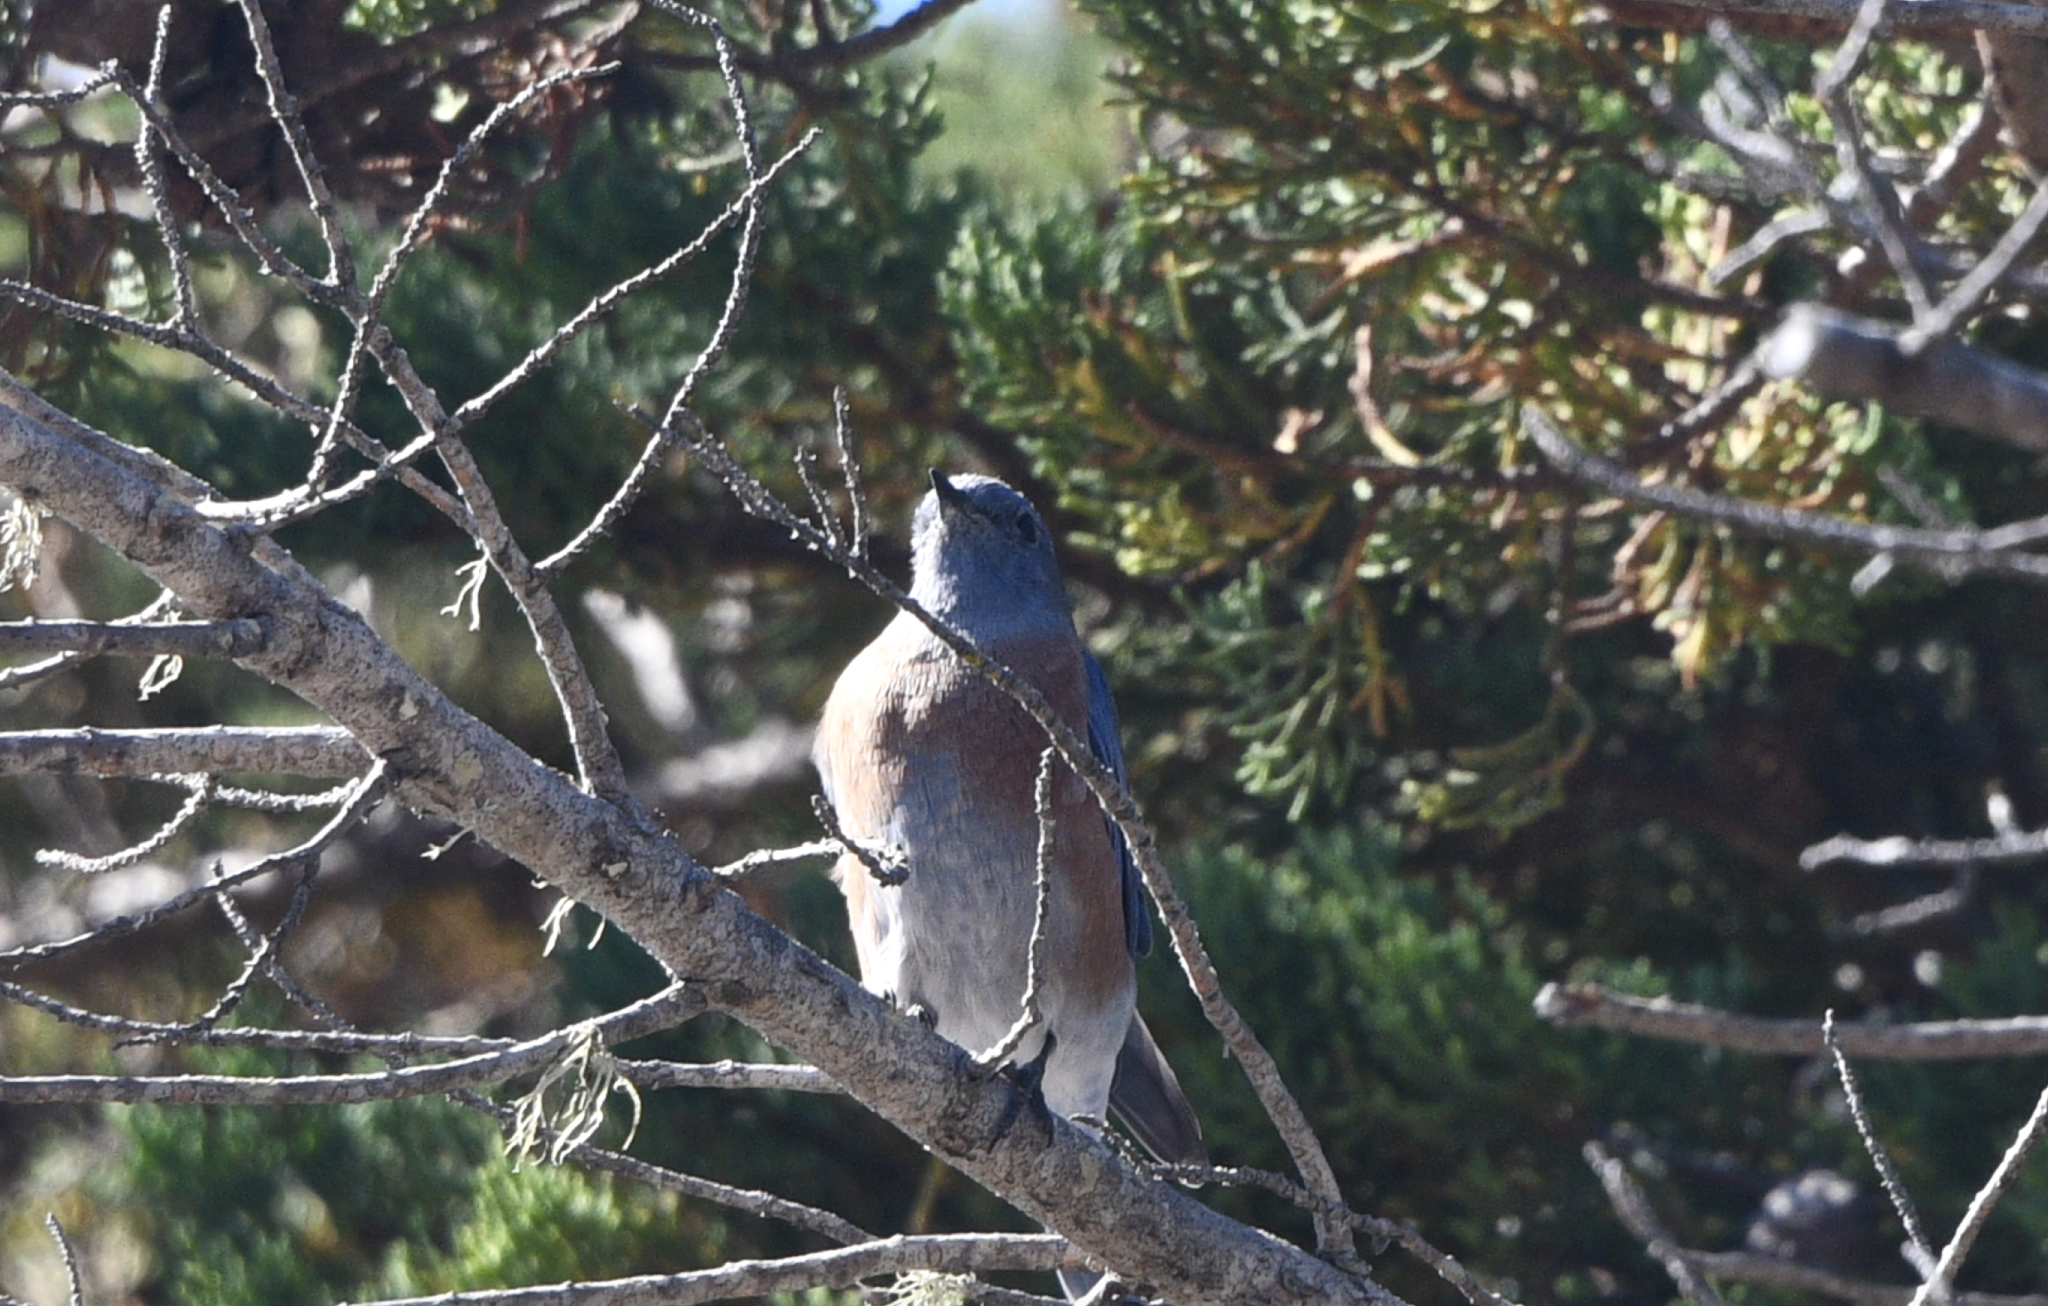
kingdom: Animalia
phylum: Chordata
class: Aves
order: Passeriformes
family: Turdidae
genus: Sialia
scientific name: Sialia mexicana
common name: Western bluebird
